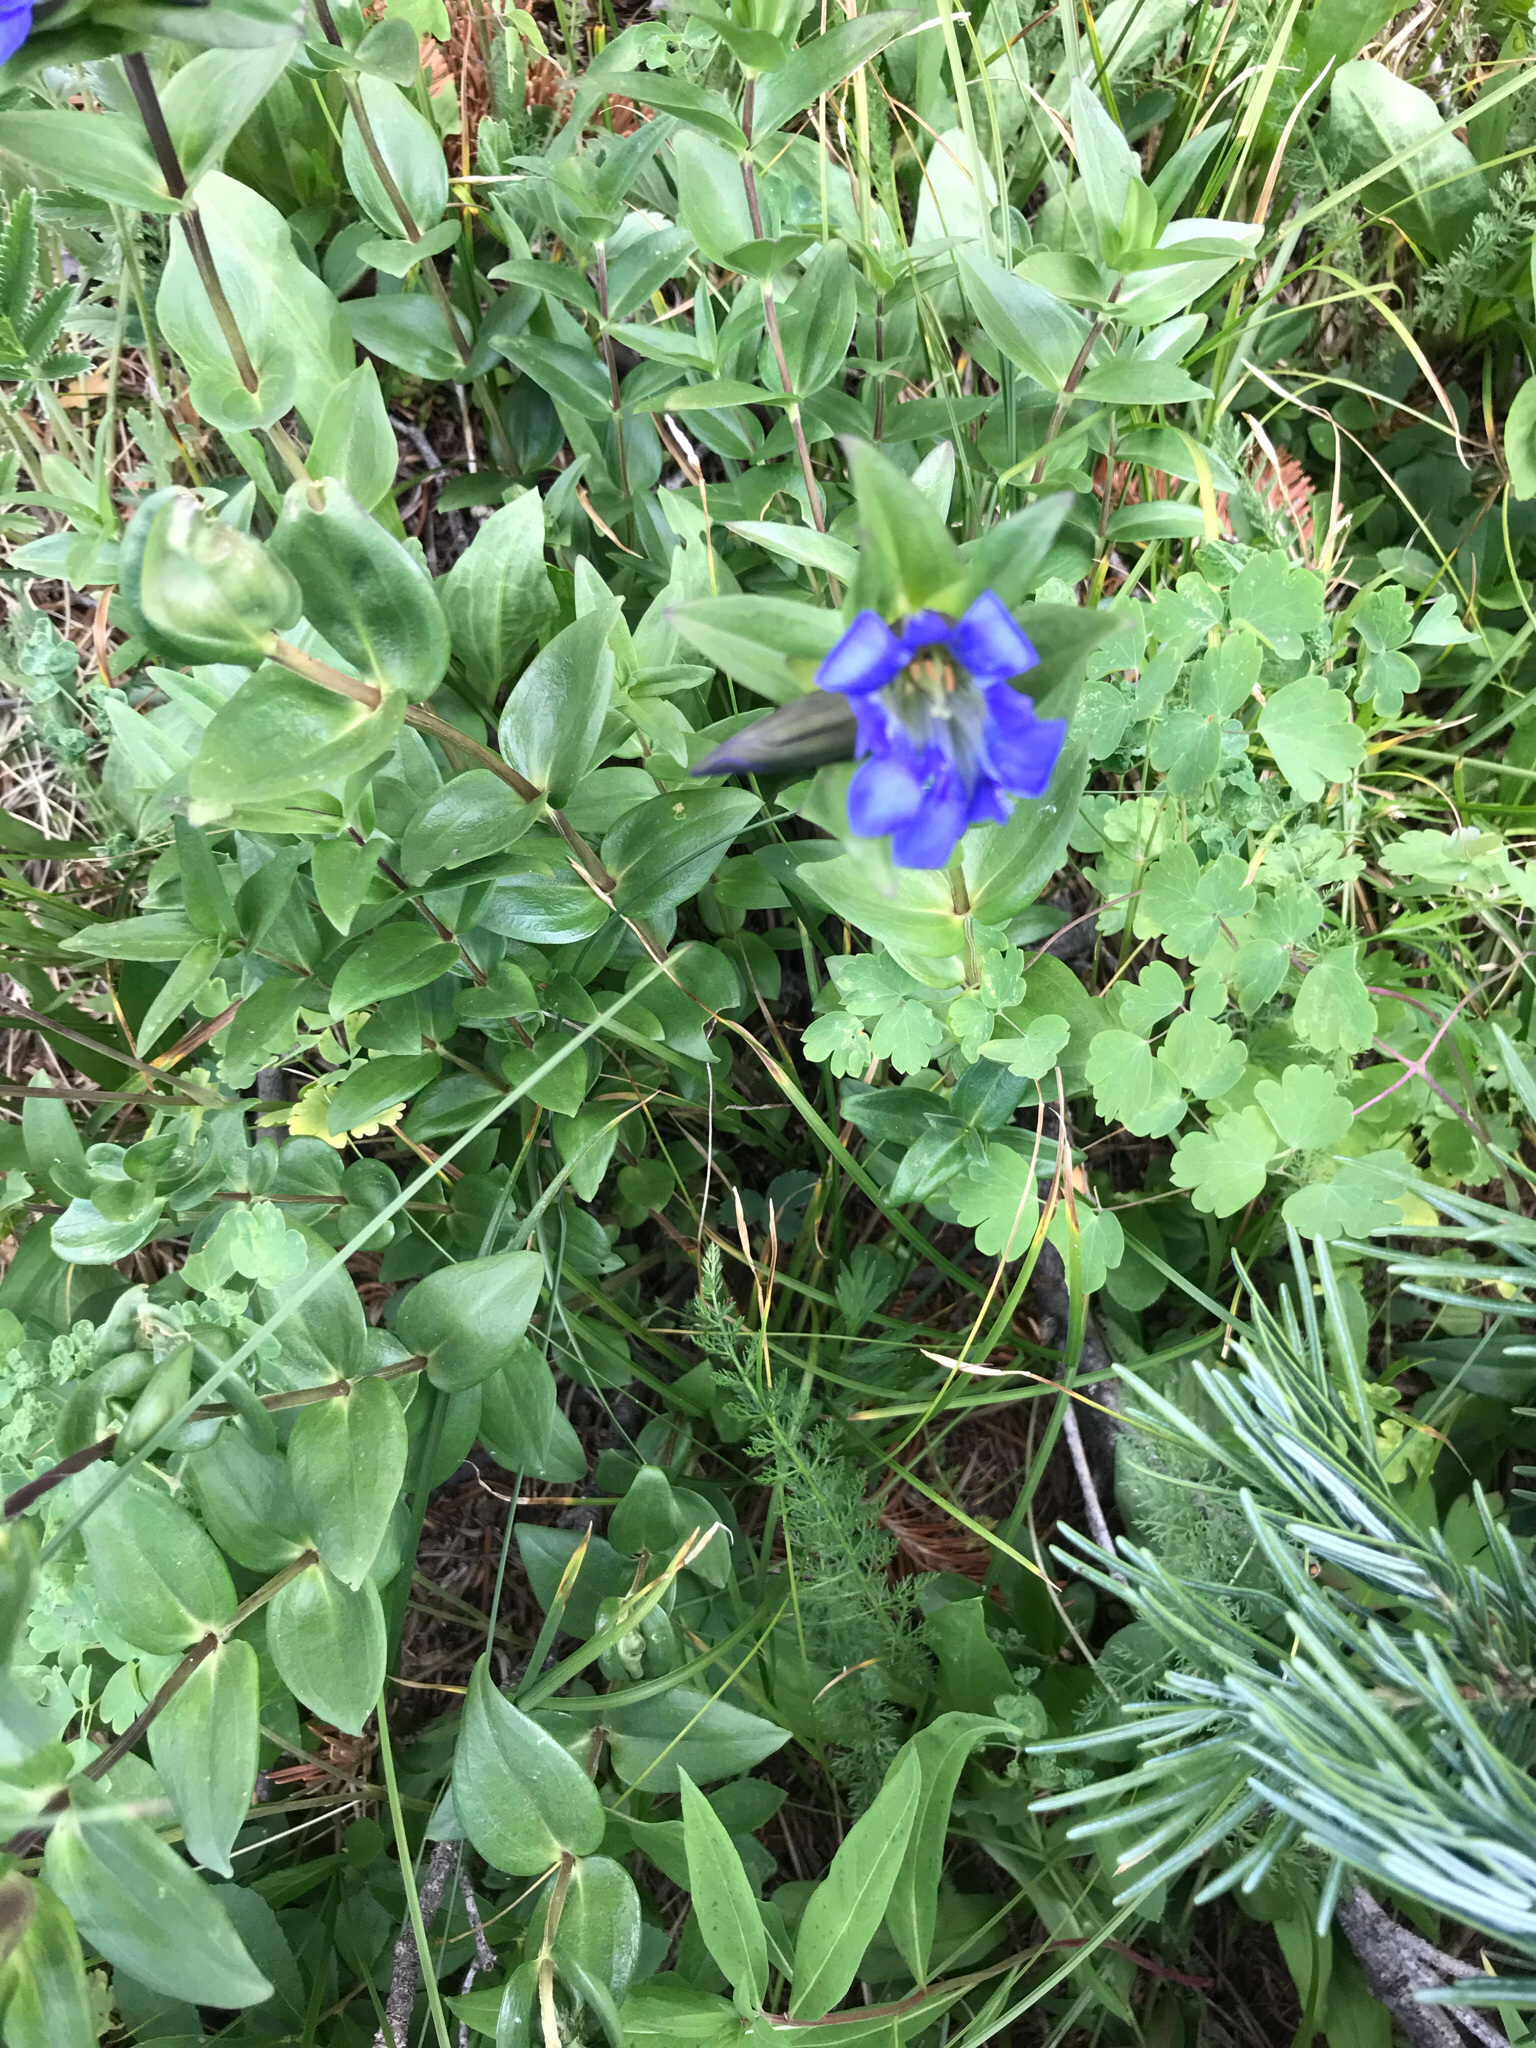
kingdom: Plantae
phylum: Tracheophyta
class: Magnoliopsida
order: Gentianales
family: Gentianaceae
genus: Gentiana
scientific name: Gentiana parryi
